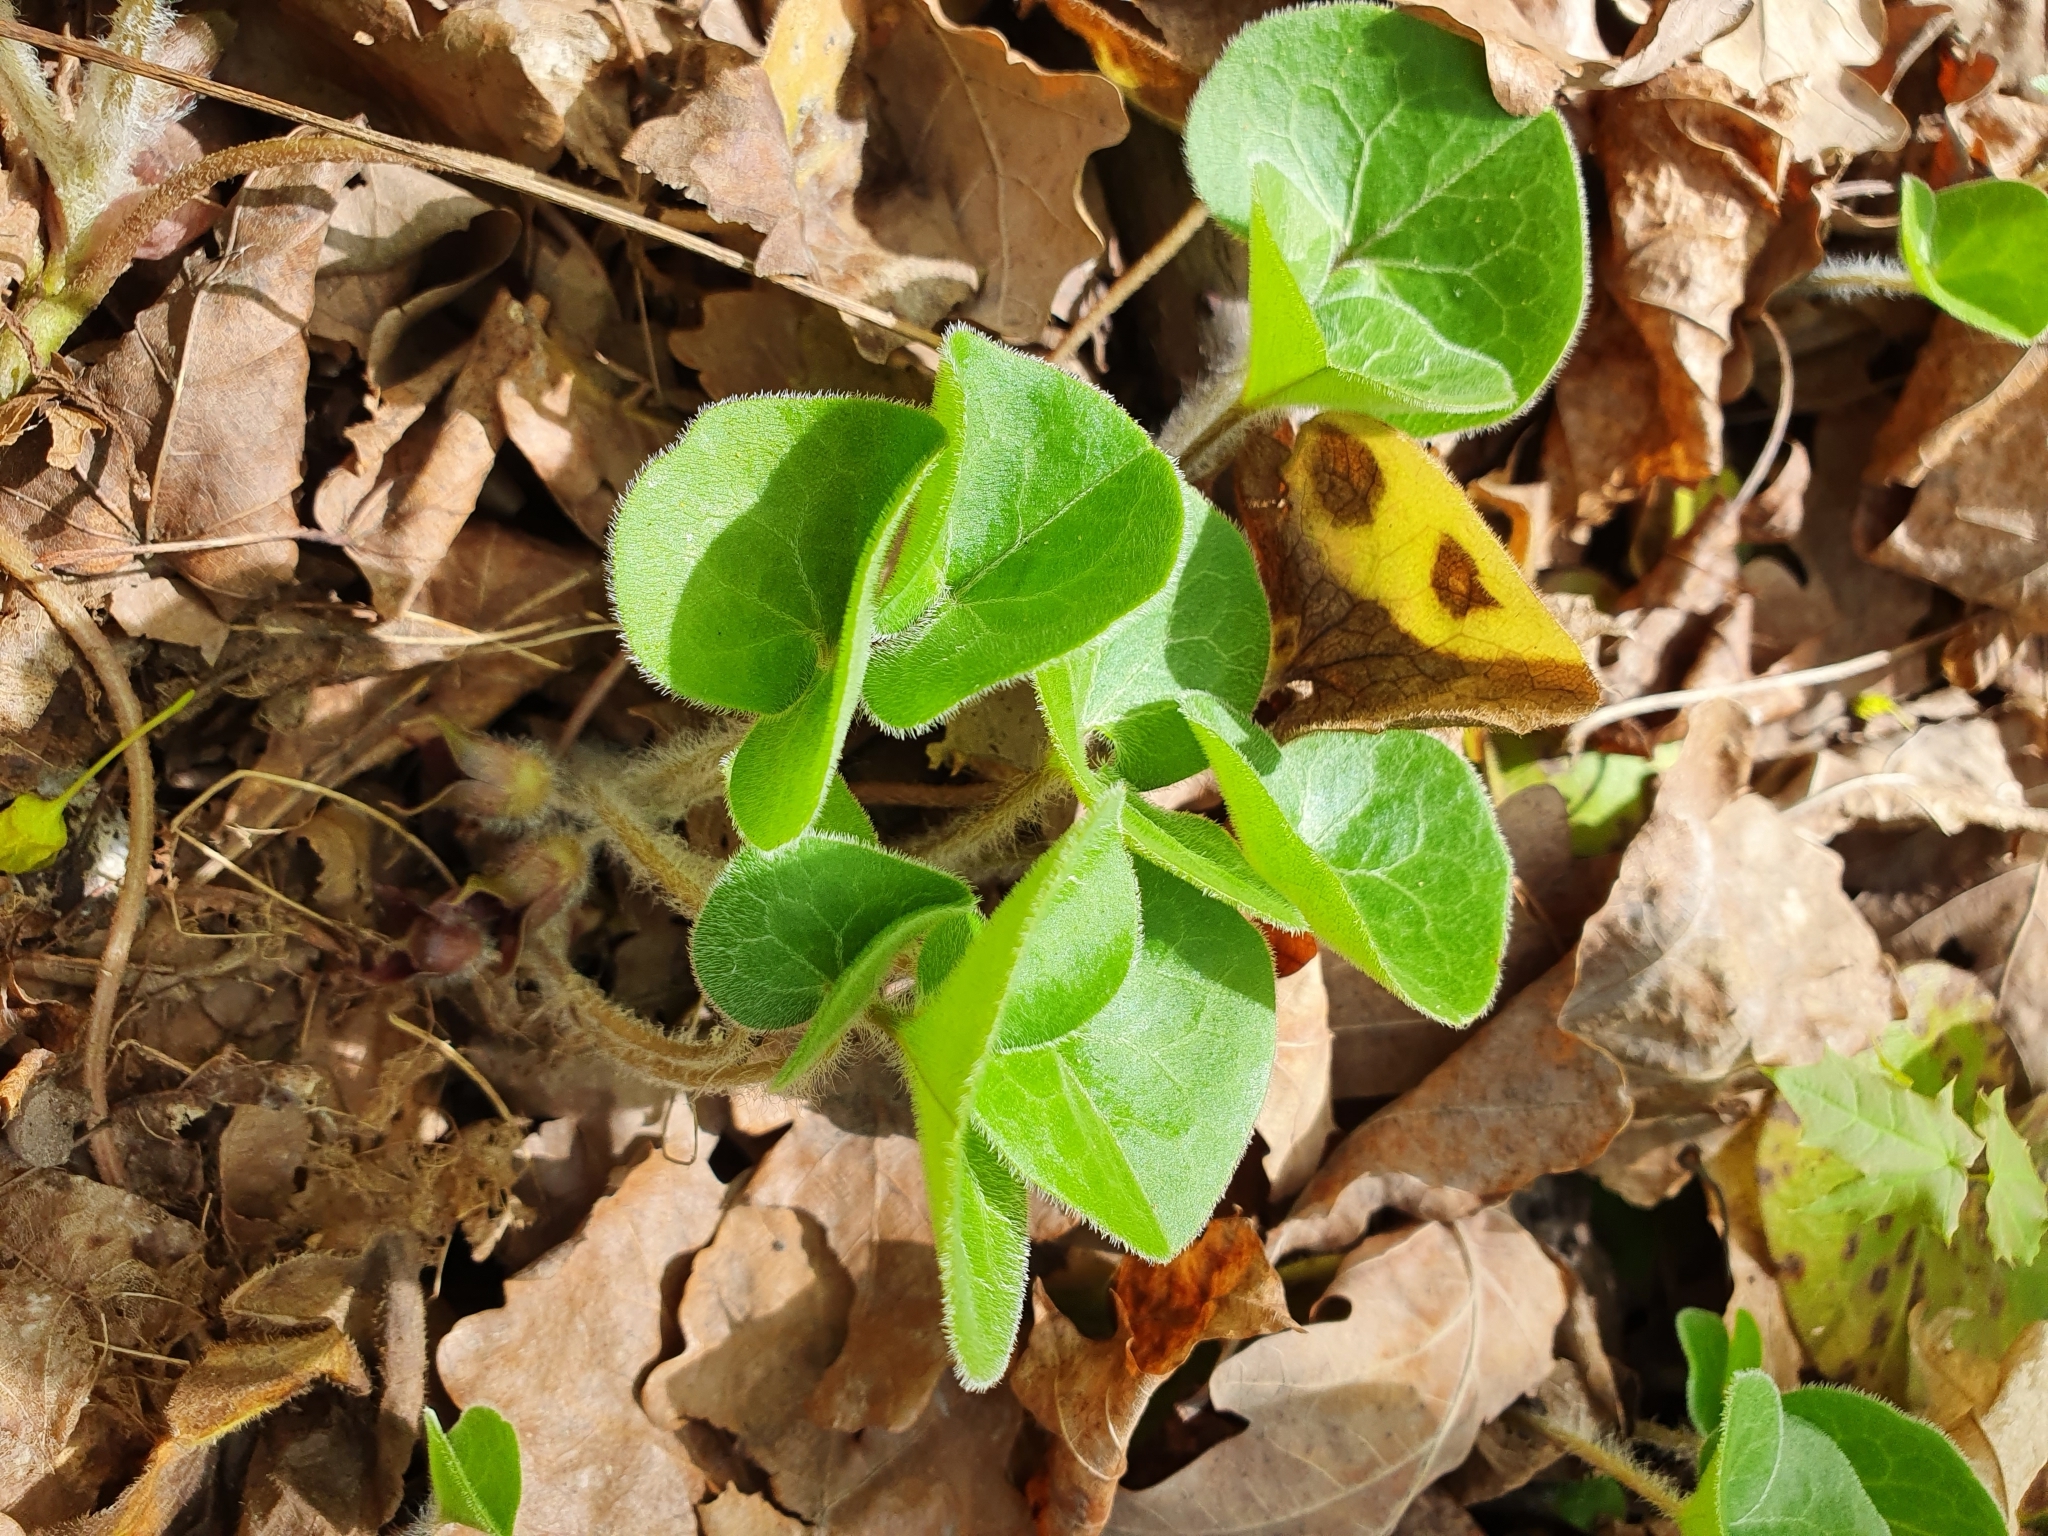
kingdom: Plantae
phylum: Tracheophyta
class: Magnoliopsida
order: Piperales
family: Aristolochiaceae
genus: Asarum
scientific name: Asarum europaeum
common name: Asarabacca
